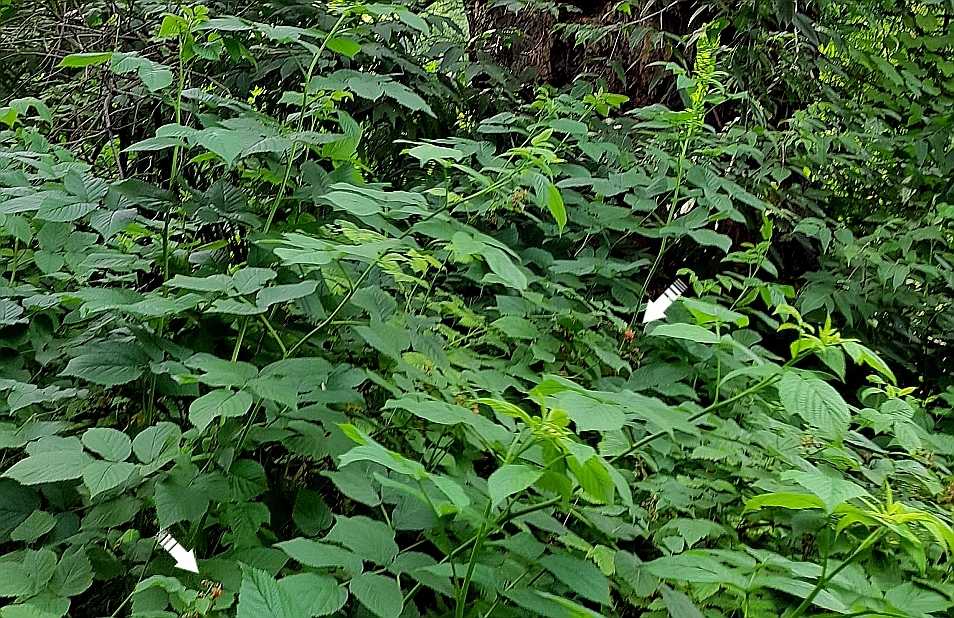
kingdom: Plantae
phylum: Tracheophyta
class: Magnoliopsida
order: Rosales
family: Rosaceae
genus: Rubus
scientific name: Rubus idaeus
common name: Raspberry
